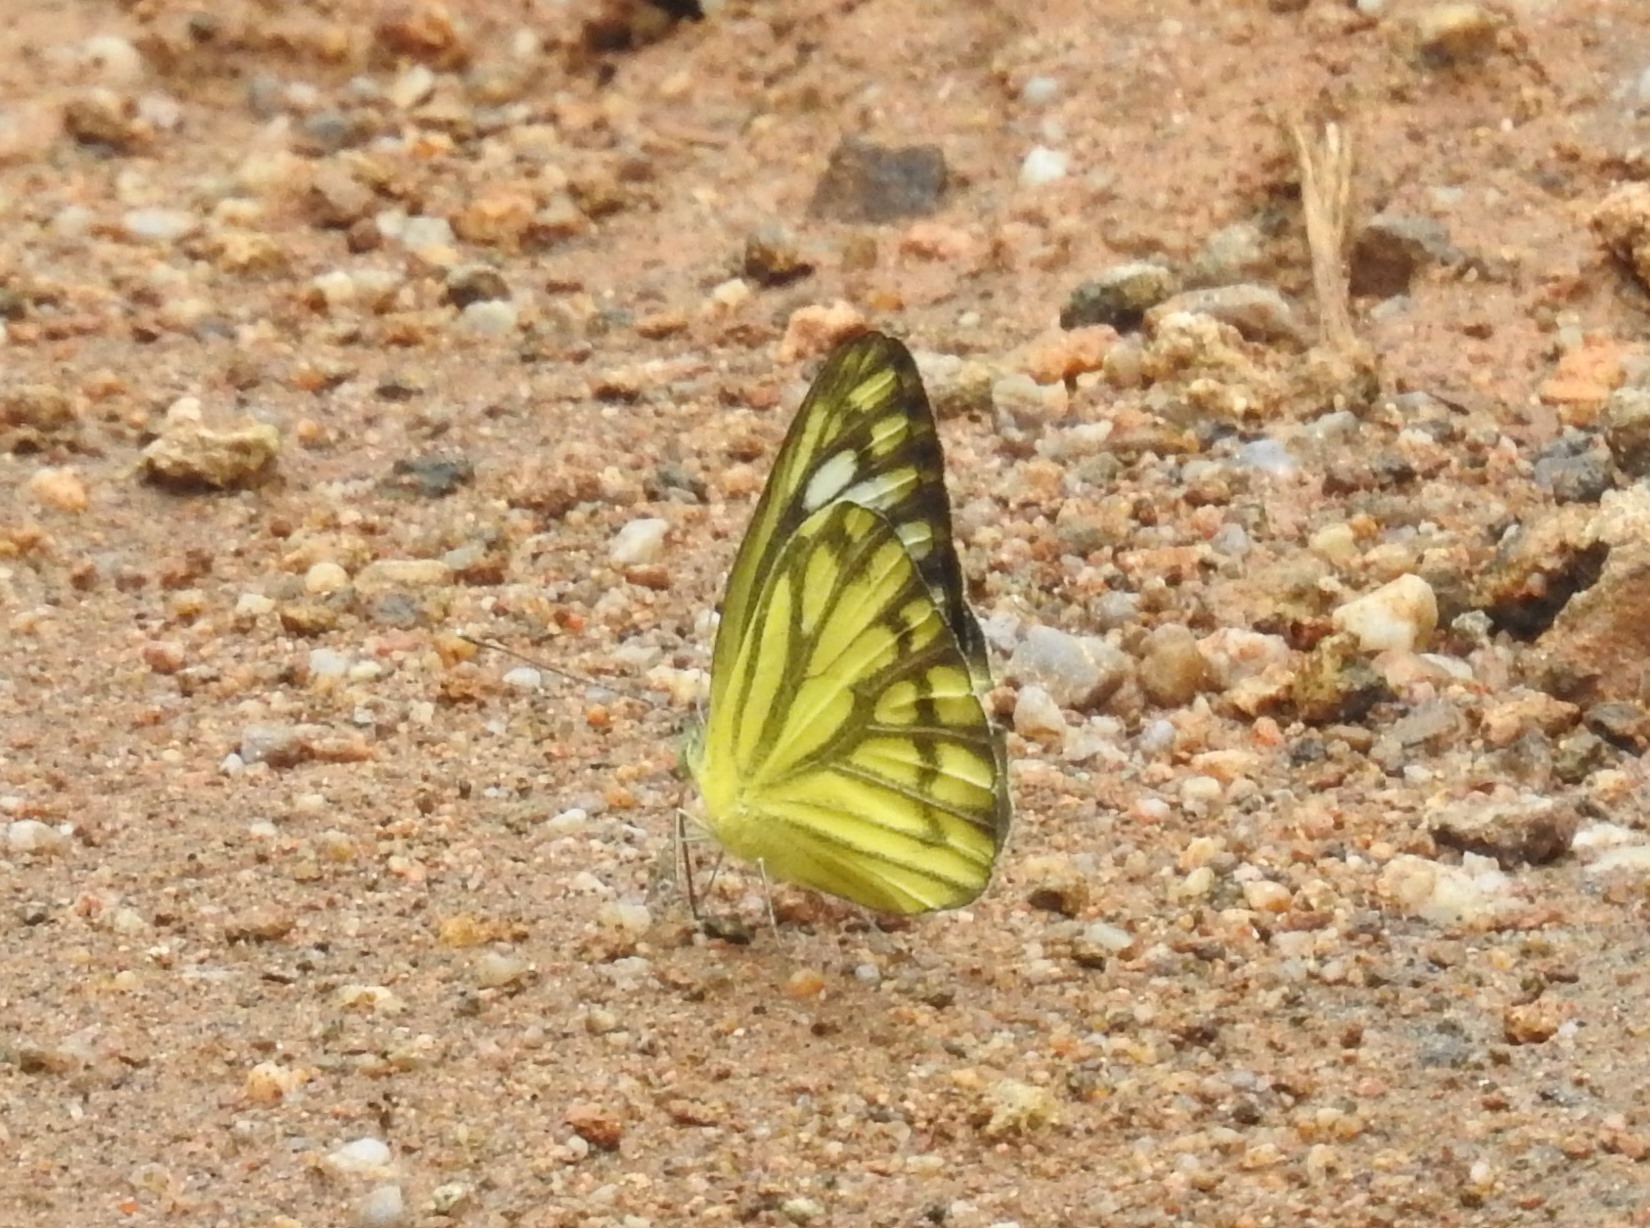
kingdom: Animalia
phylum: Arthropoda
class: Insecta
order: Lepidoptera
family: Pieridae
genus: Cepora
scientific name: Cepora nerissa
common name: Common gull
